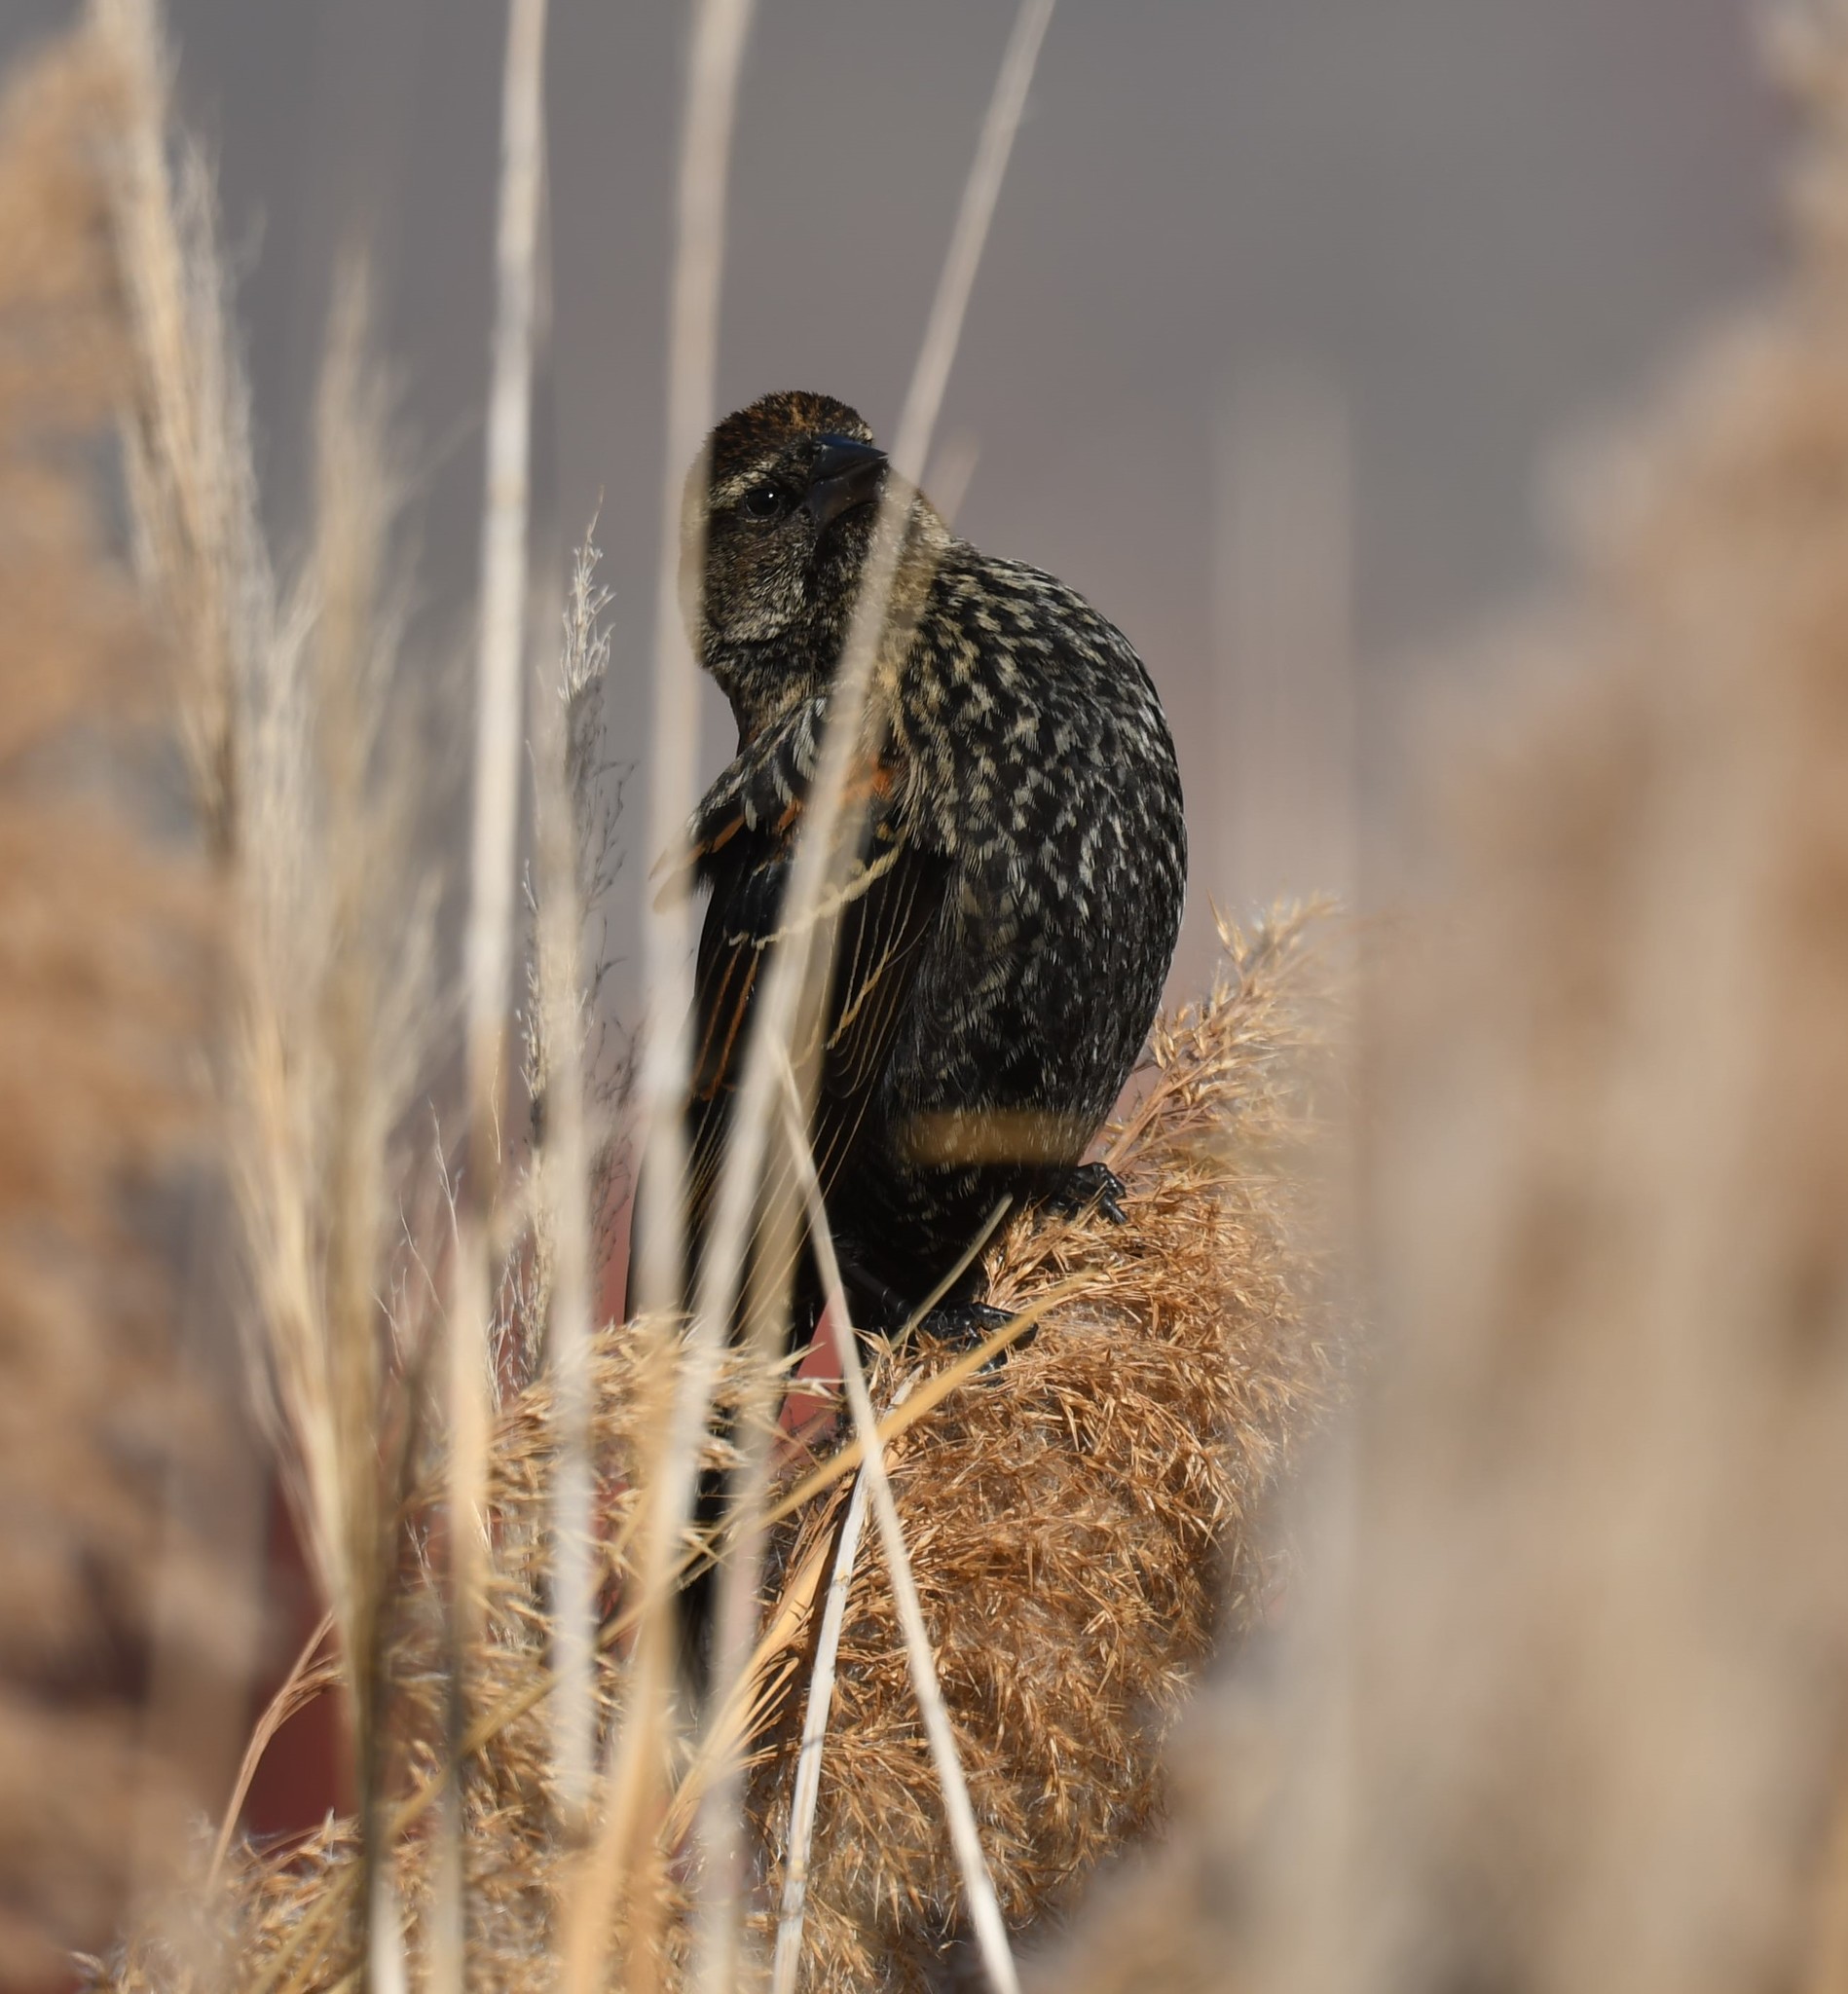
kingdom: Animalia
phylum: Chordata
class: Aves
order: Passeriformes
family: Icteridae
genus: Agelaius
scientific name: Agelaius phoeniceus
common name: Red-winged blackbird
